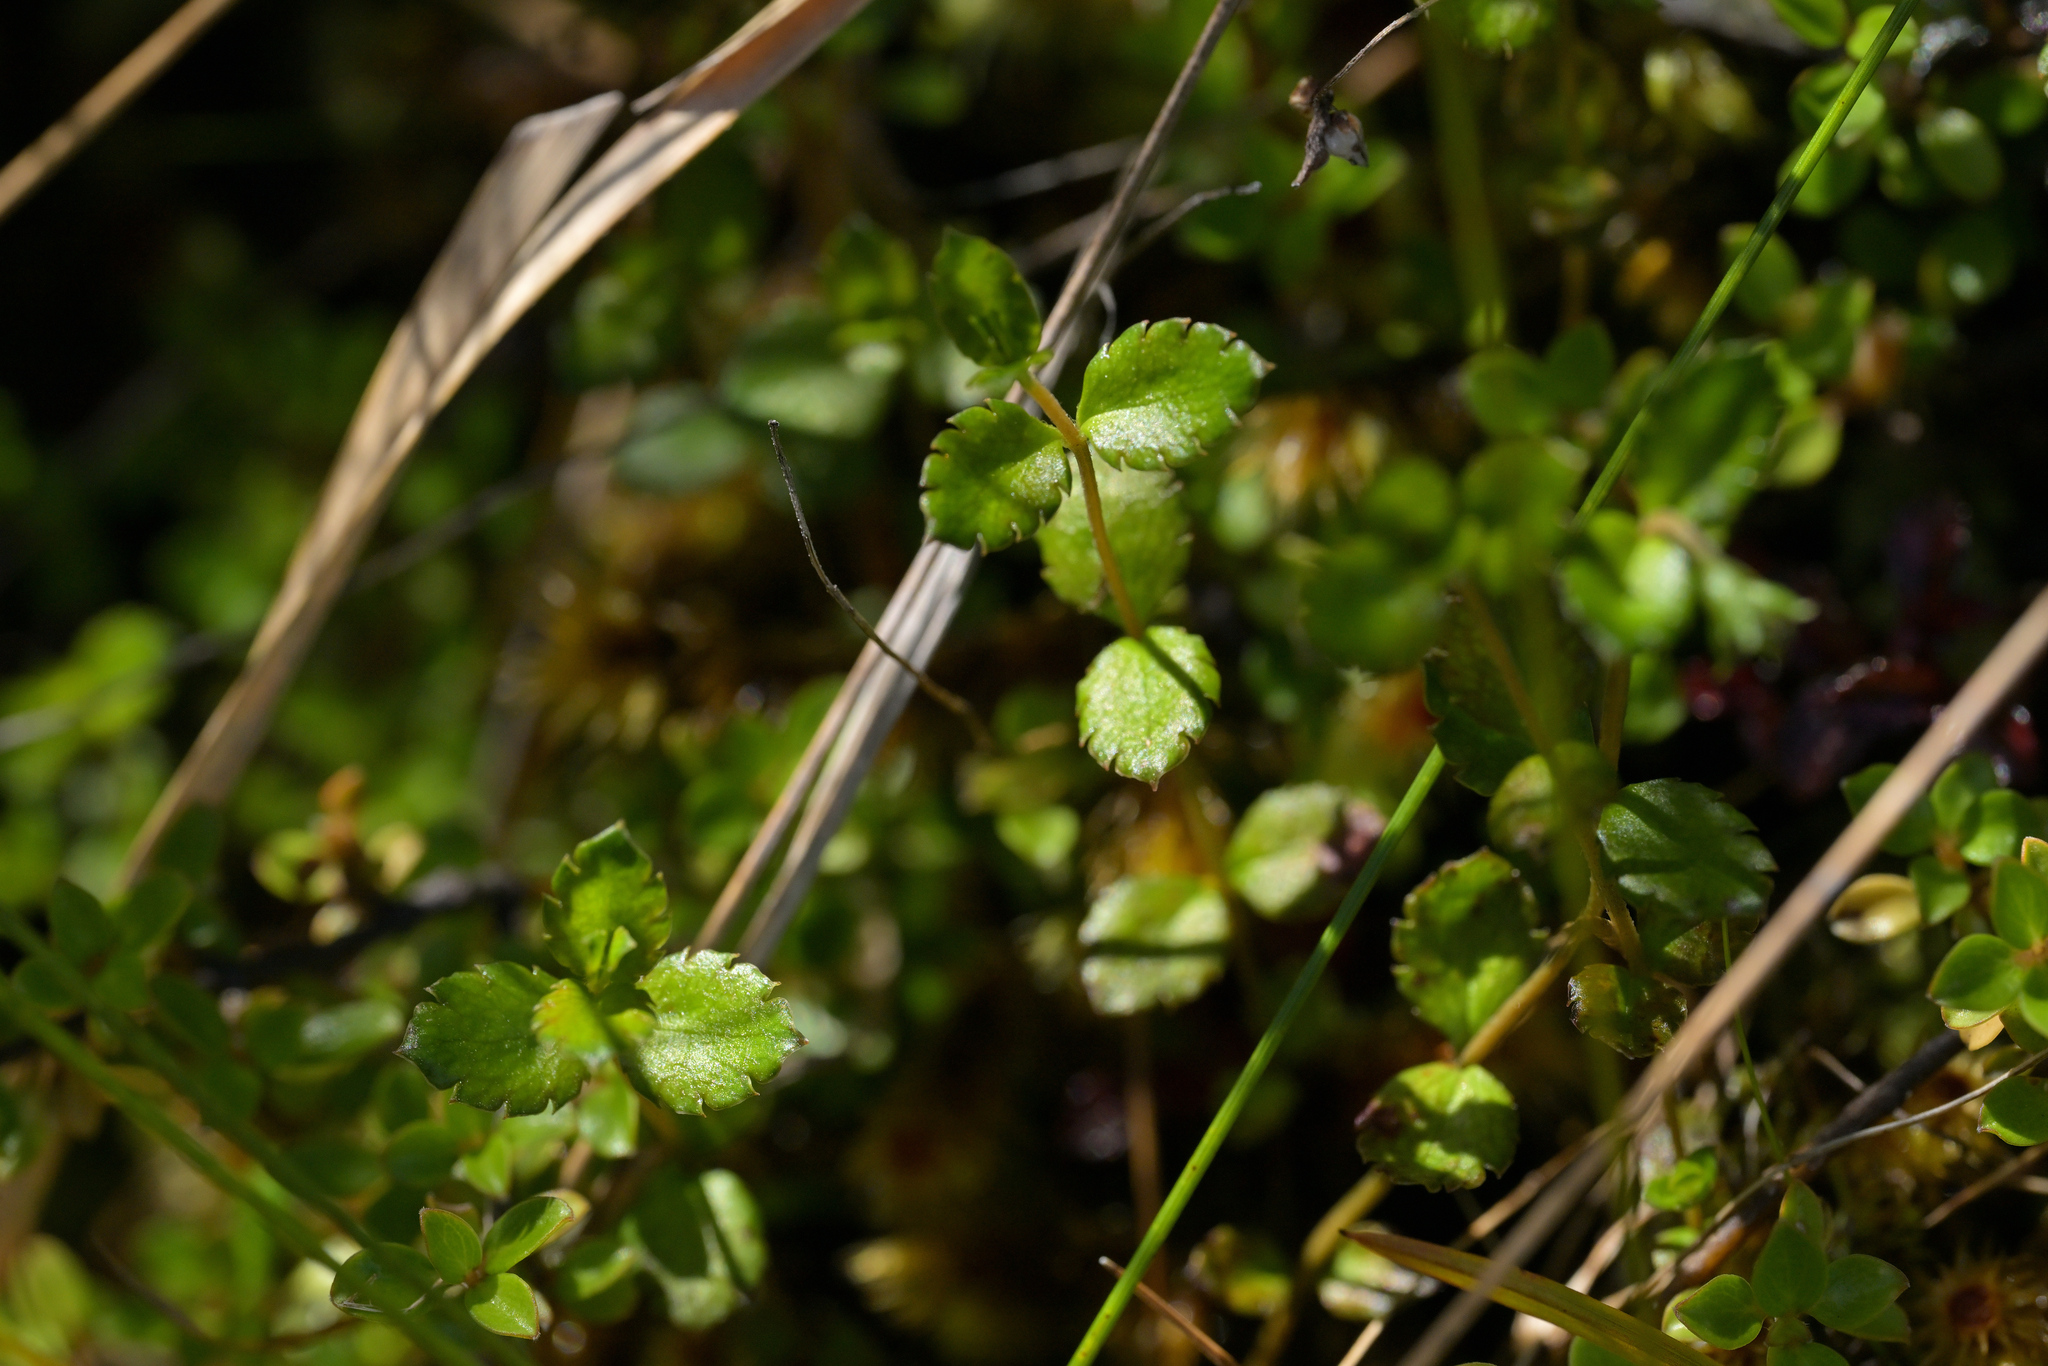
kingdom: Plantae
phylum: Tracheophyta
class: Magnoliopsida
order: Saxifragales
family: Haloragaceae
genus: Gonocarpus
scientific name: Gonocarpus aggregatus
